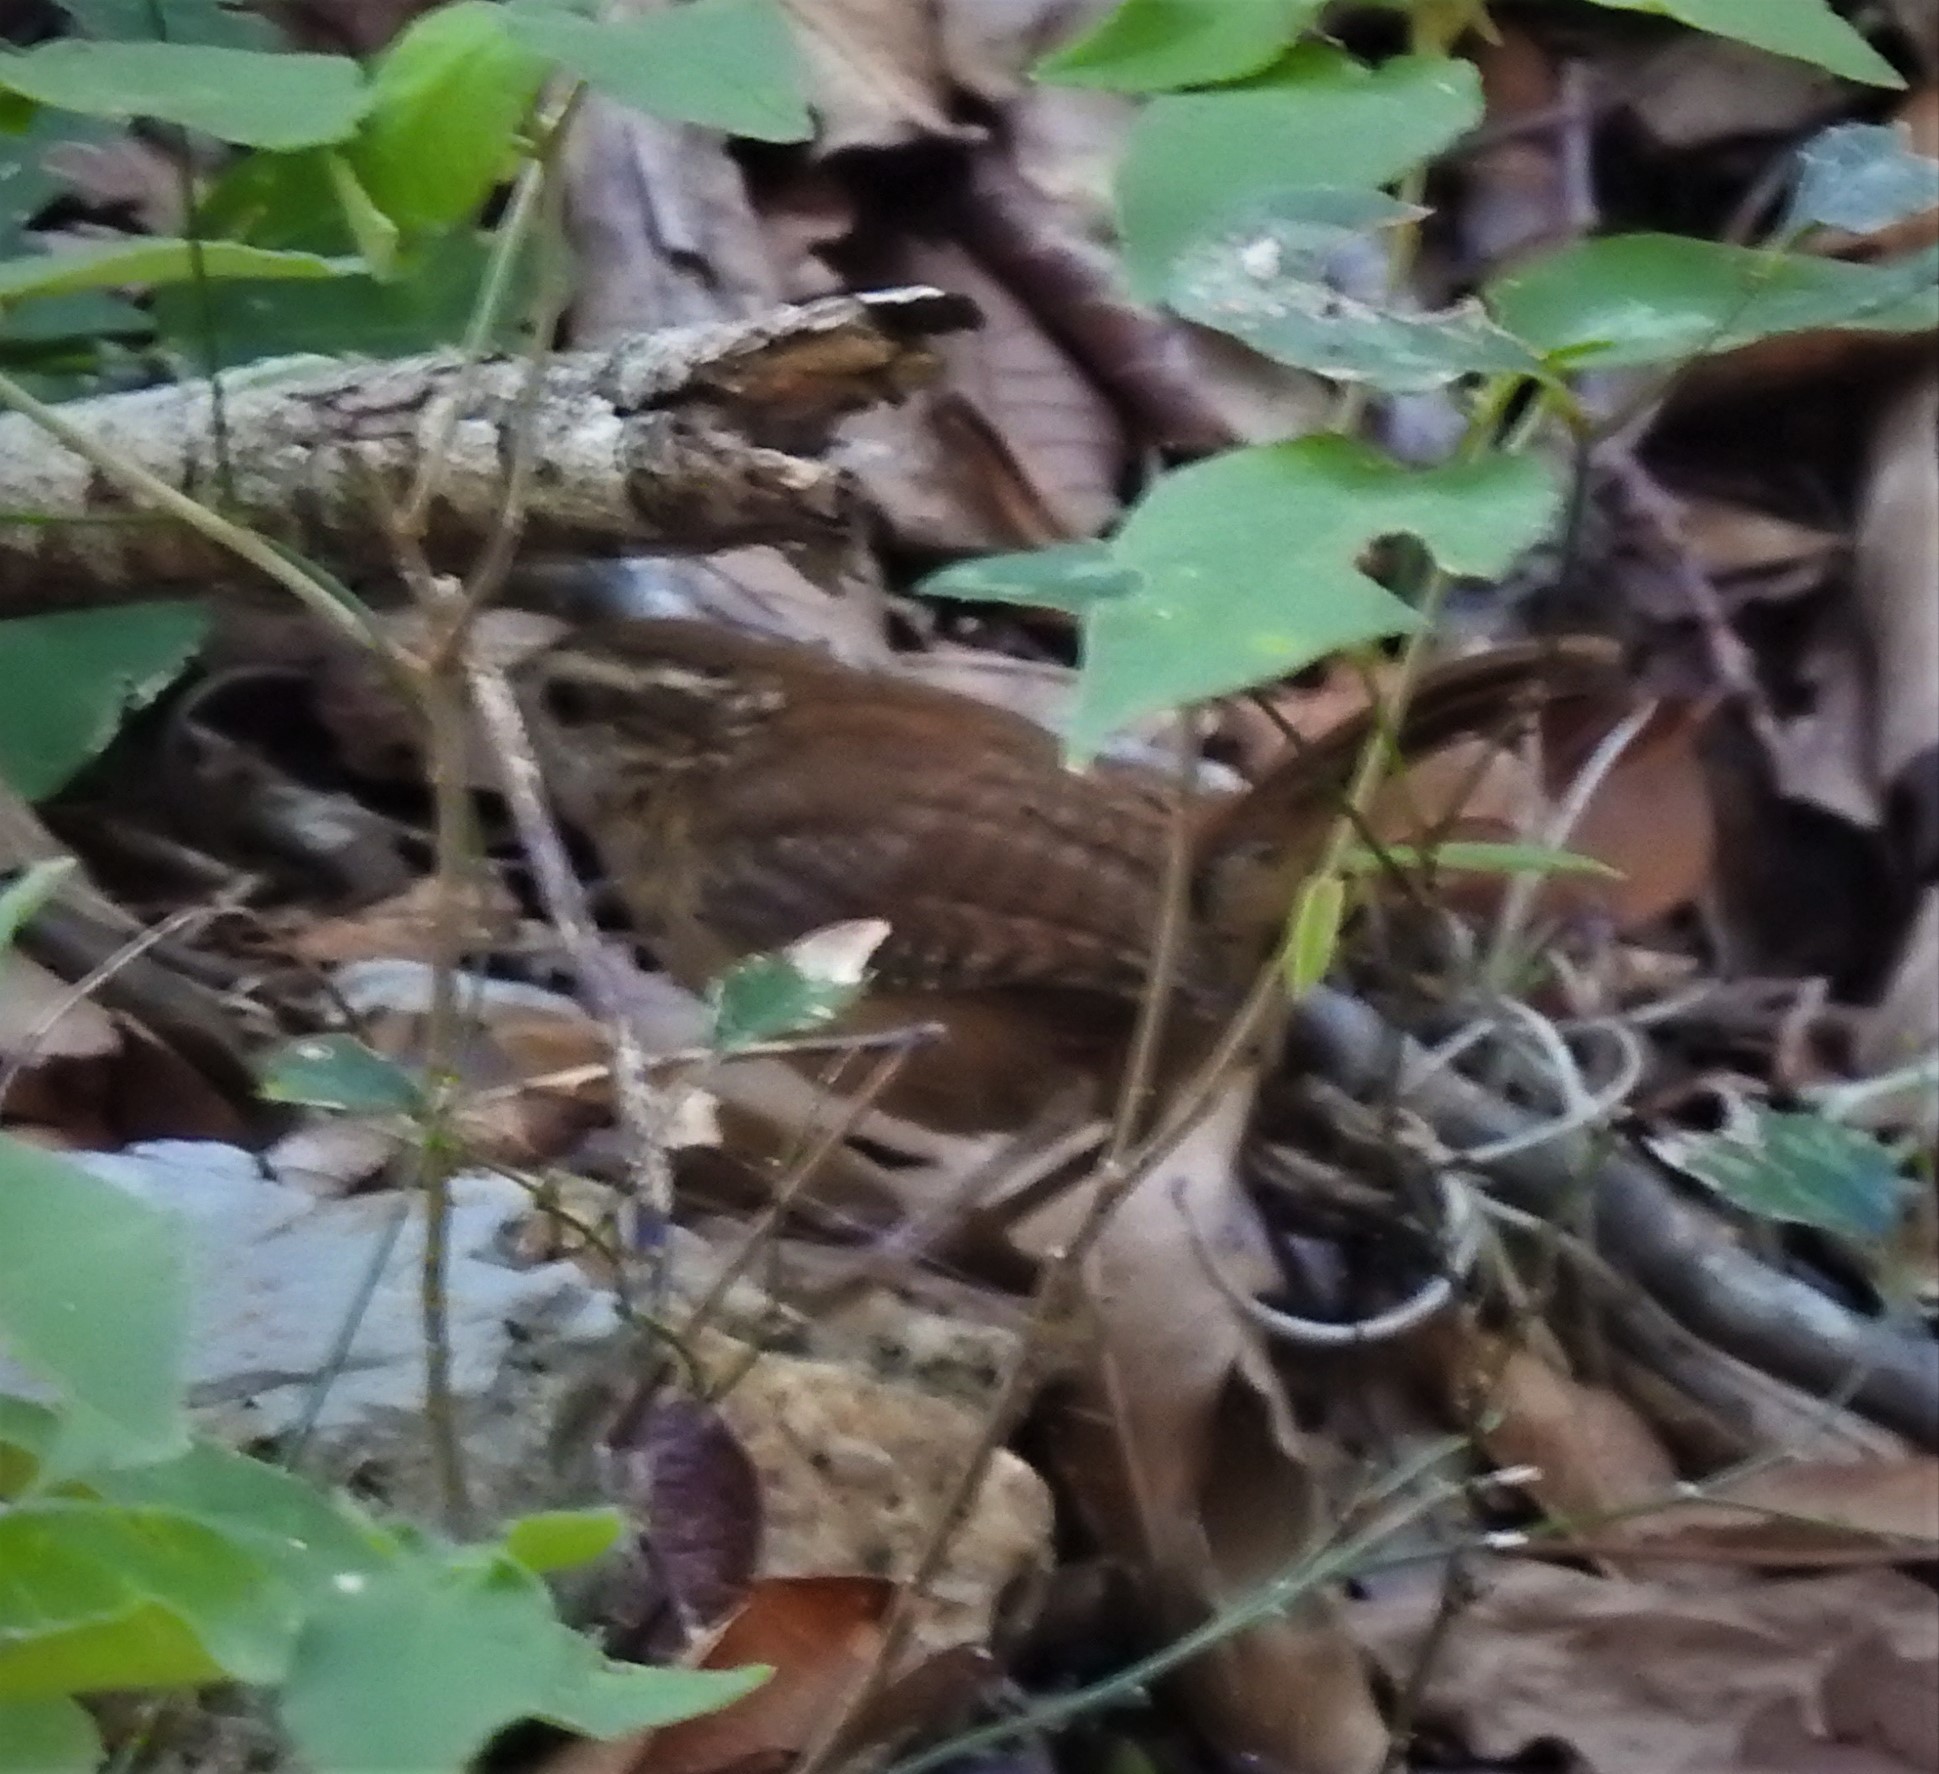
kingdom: Animalia
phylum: Chordata
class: Aves
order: Passeriformes
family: Troglodytidae
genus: Thryothorus
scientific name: Thryothorus ludovicianus
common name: Carolina wren
